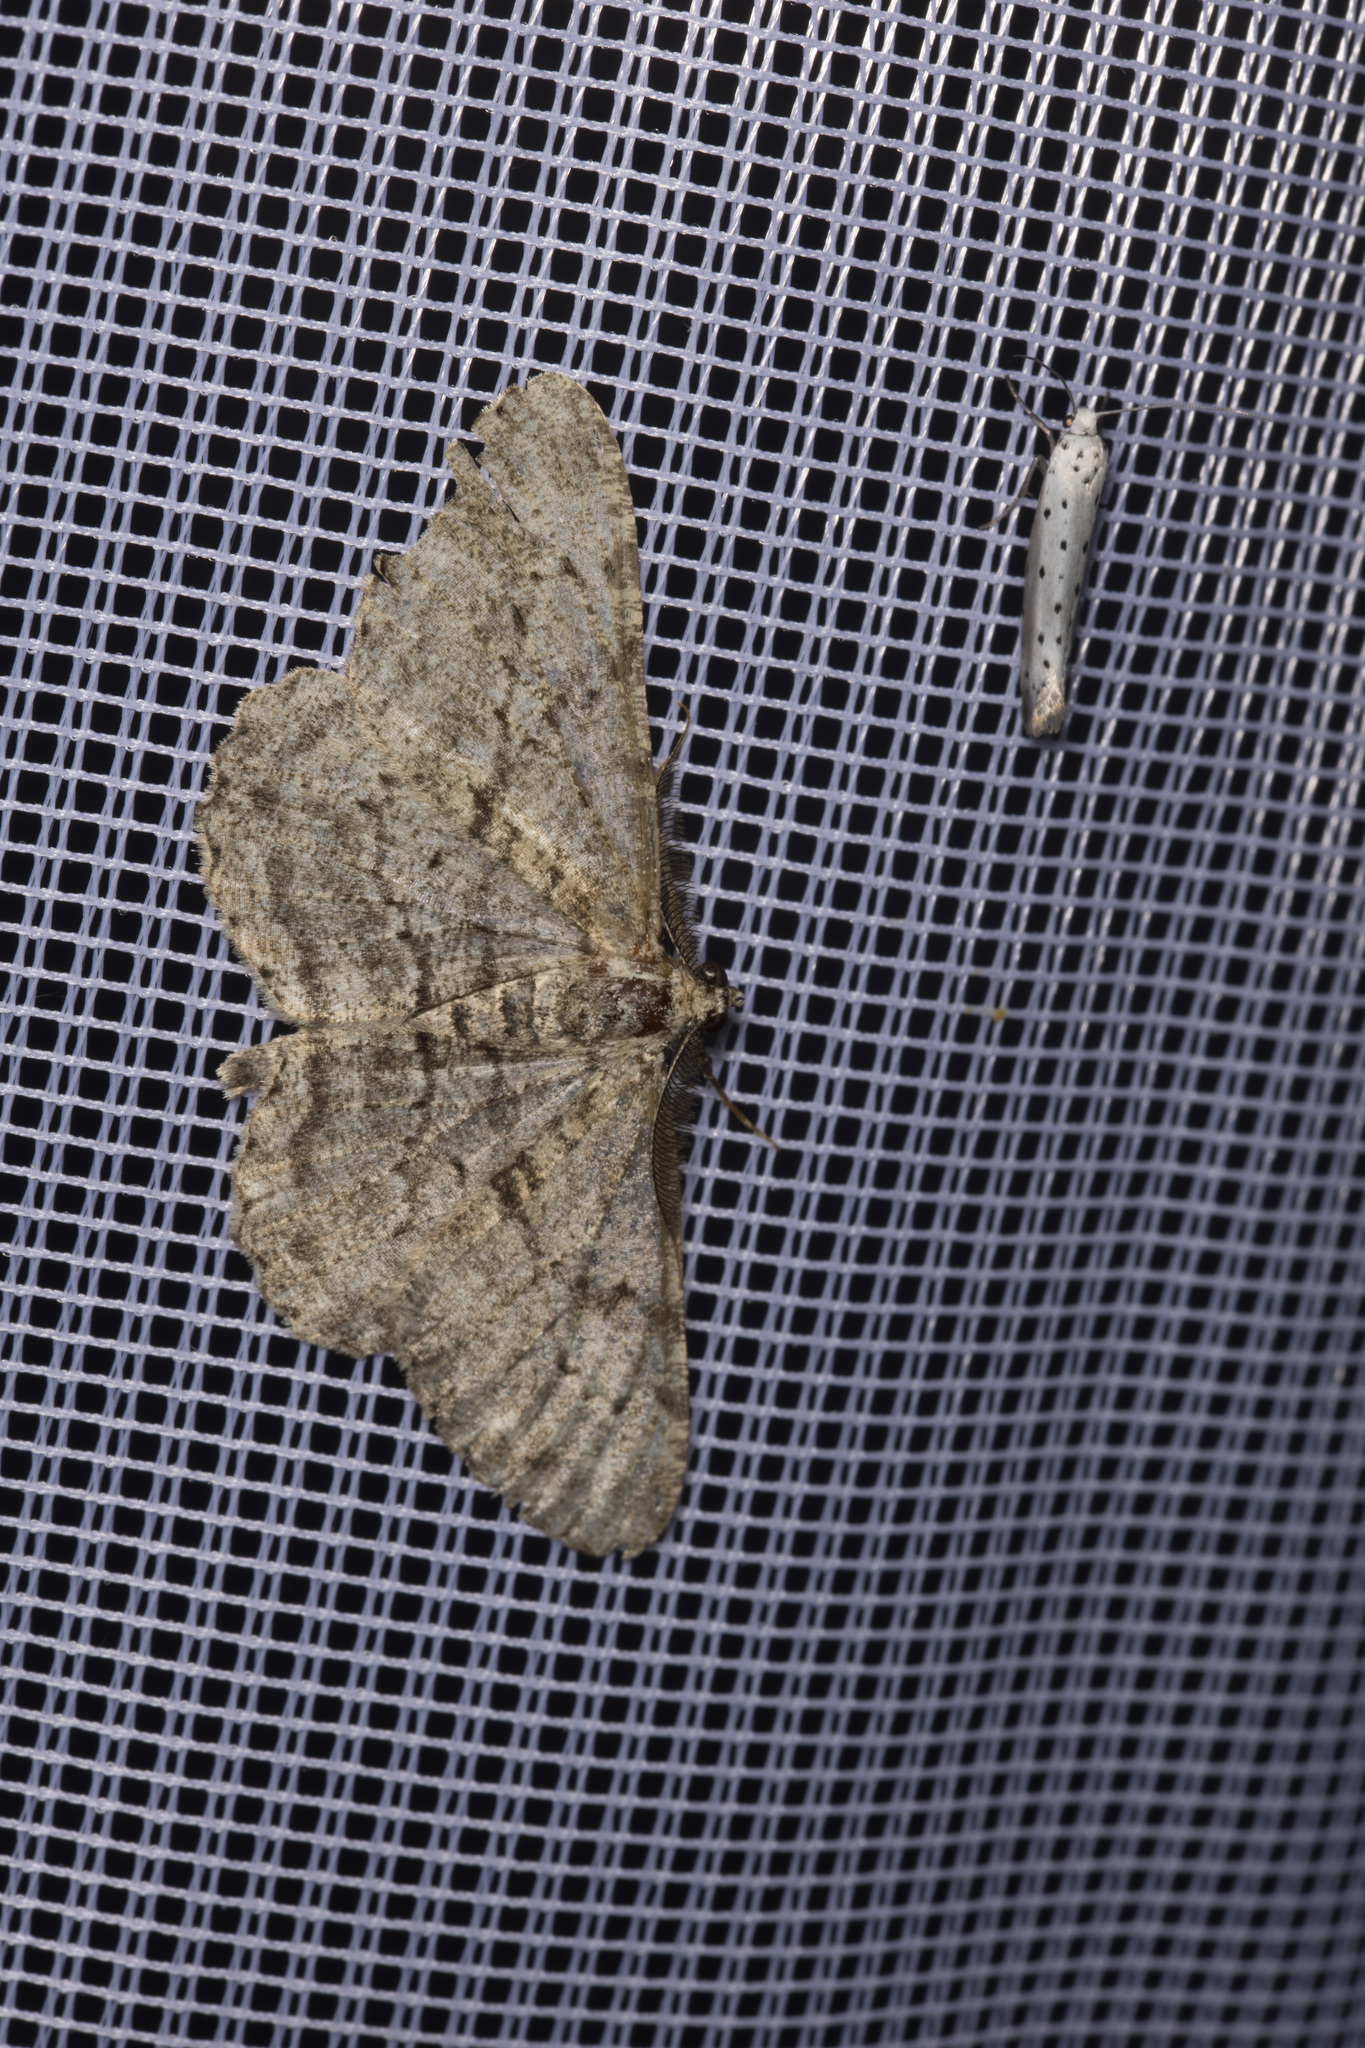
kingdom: Animalia
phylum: Arthropoda
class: Insecta
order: Lepidoptera
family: Geometridae
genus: Peribatodes
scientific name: Peribatodes rhomboidaria
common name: Willow beauty
